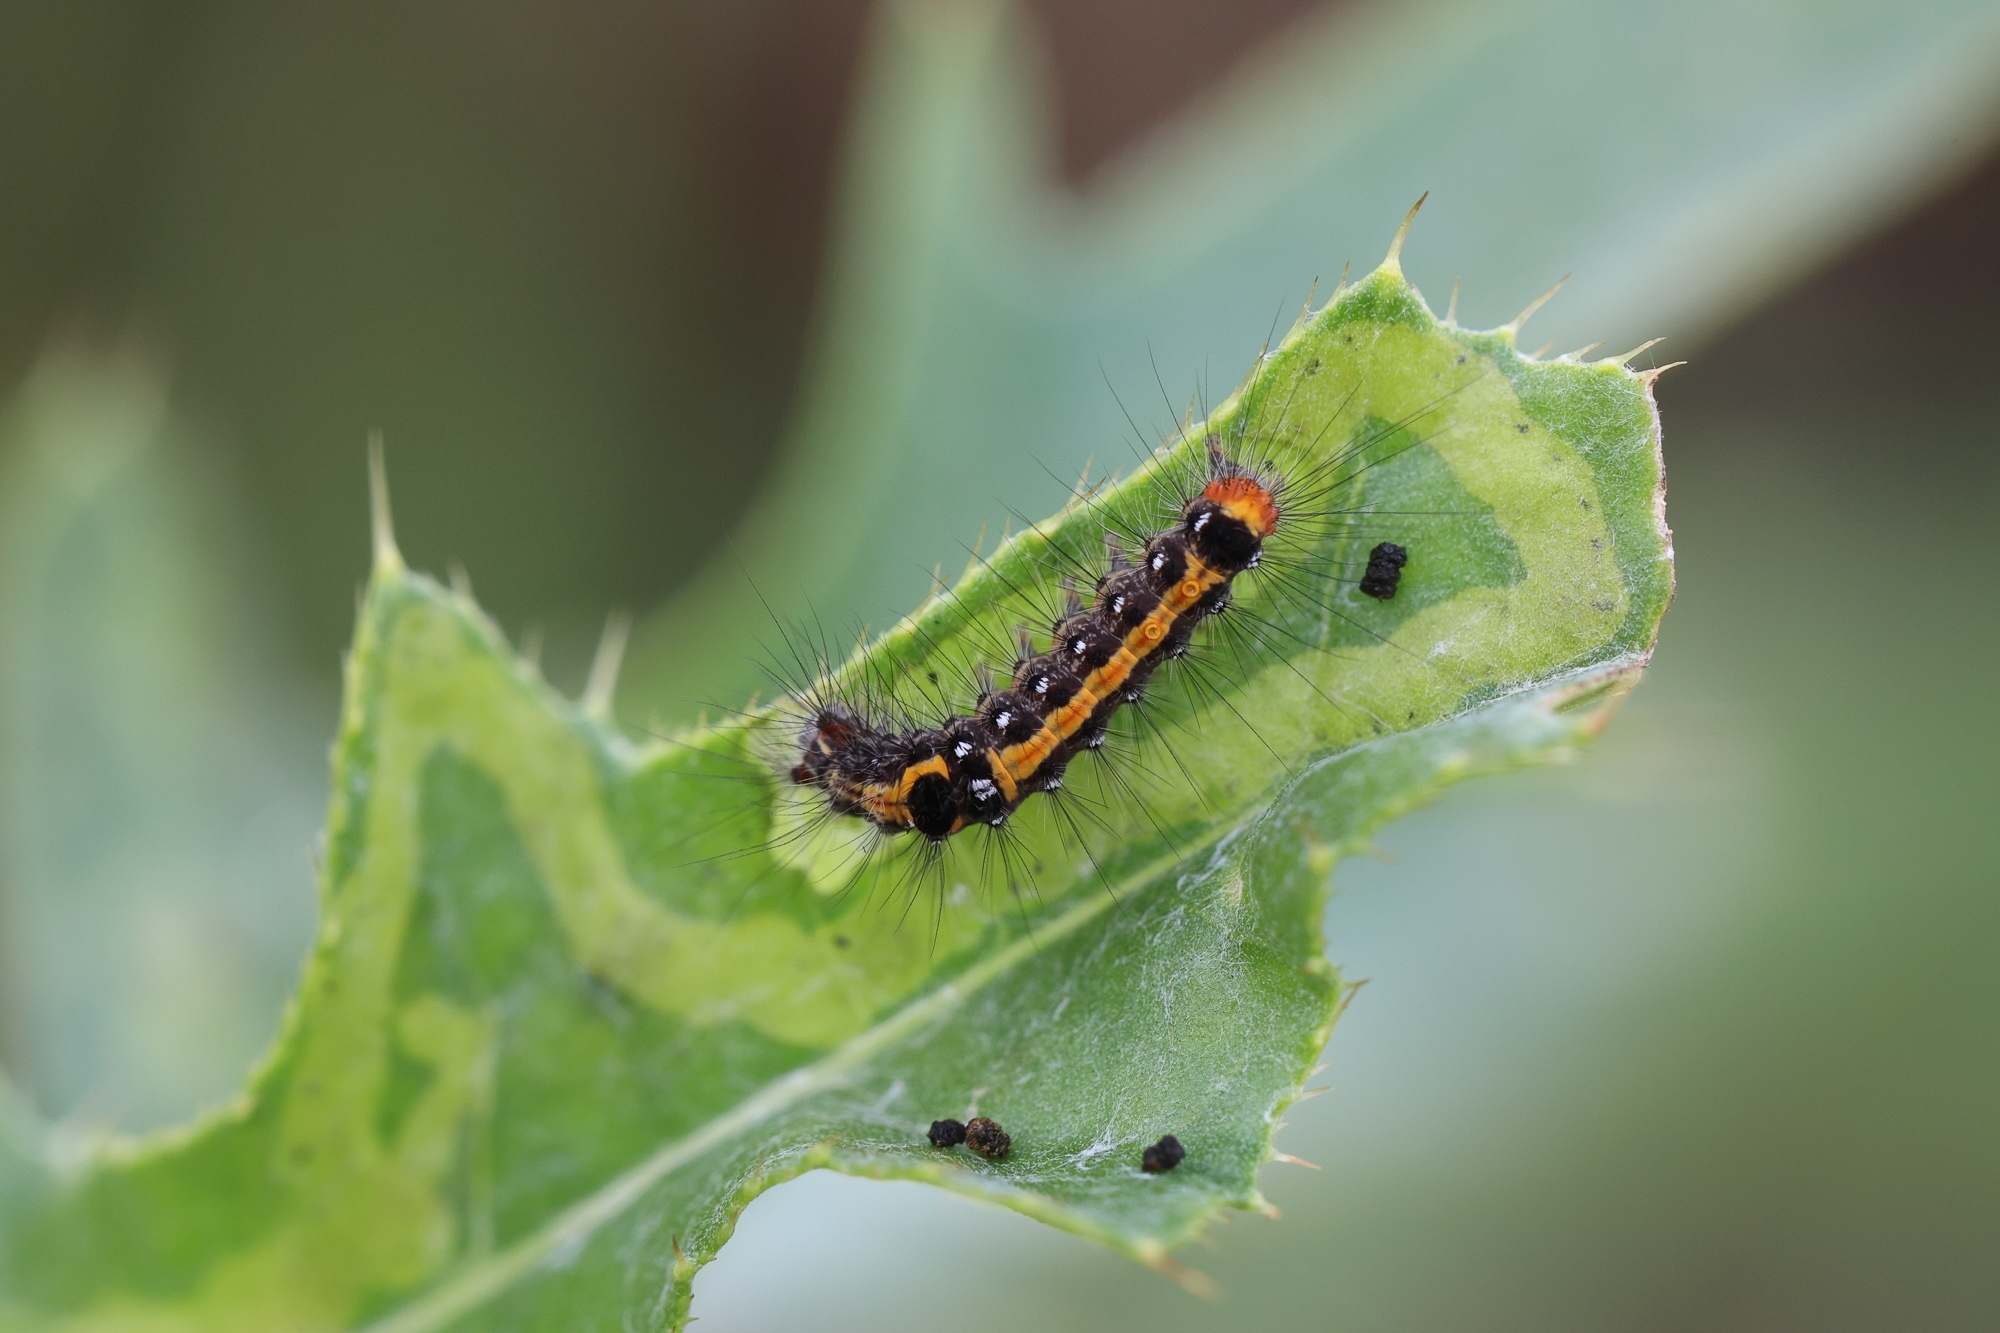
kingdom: Animalia
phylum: Arthropoda
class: Insecta
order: Lepidoptera
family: Erebidae
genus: Sphrageidus
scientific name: Sphrageidus similis
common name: Yellow-tail
